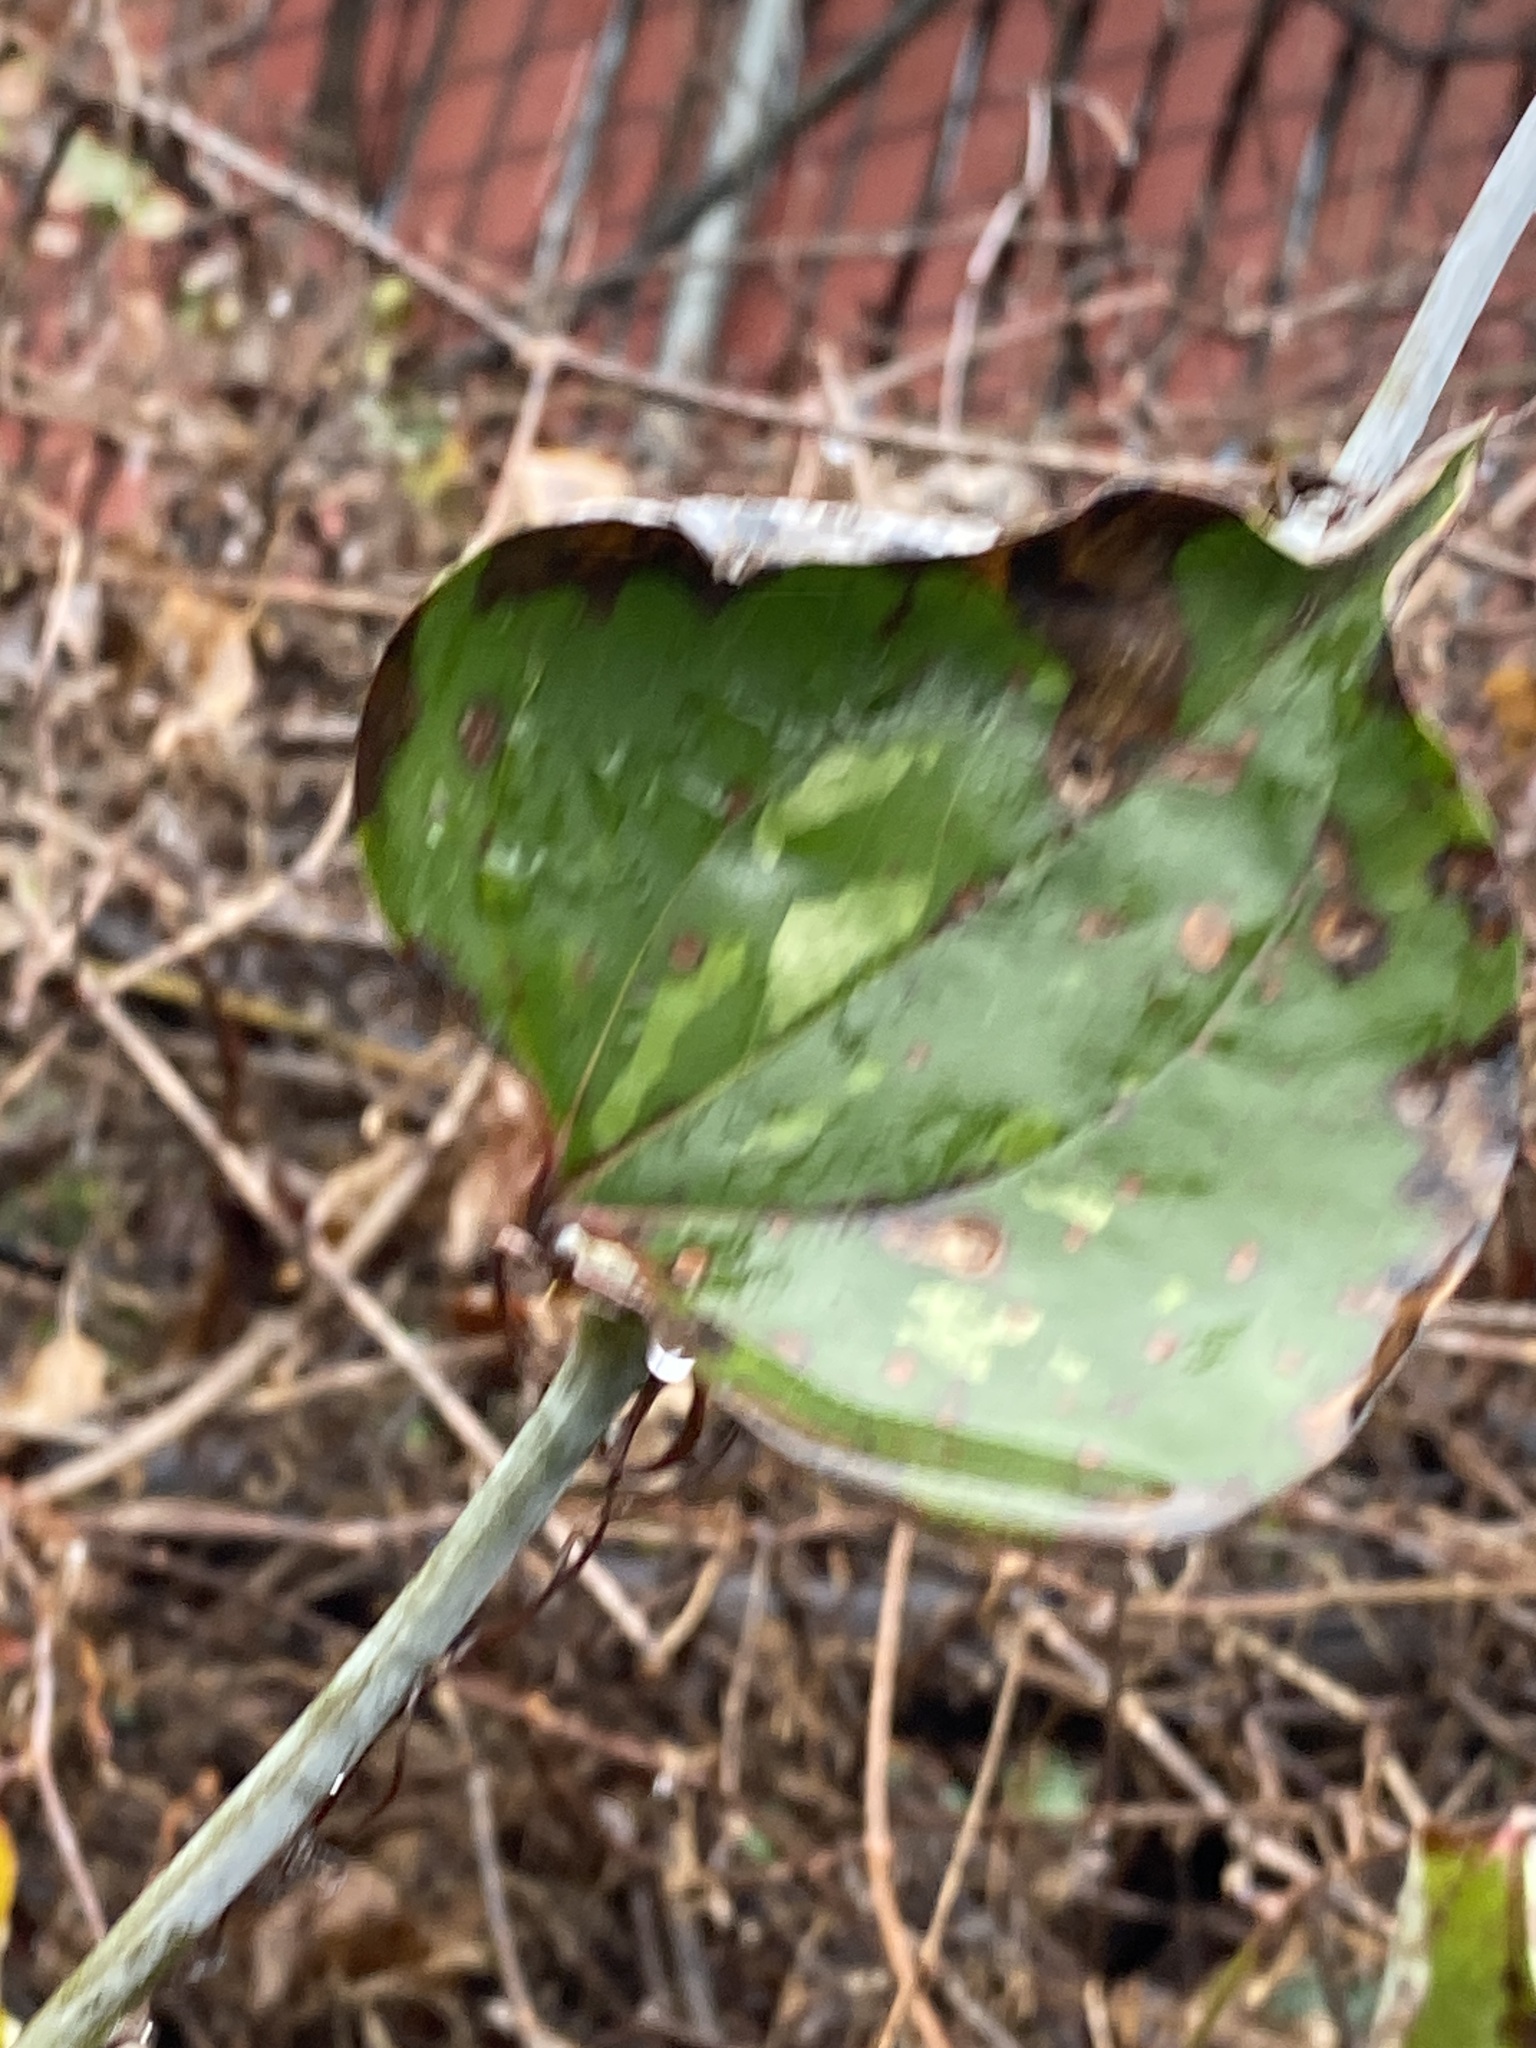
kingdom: Plantae
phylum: Tracheophyta
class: Liliopsida
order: Liliales
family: Smilacaceae
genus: Smilax
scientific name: Smilax glauca
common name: Cat greenbrier
